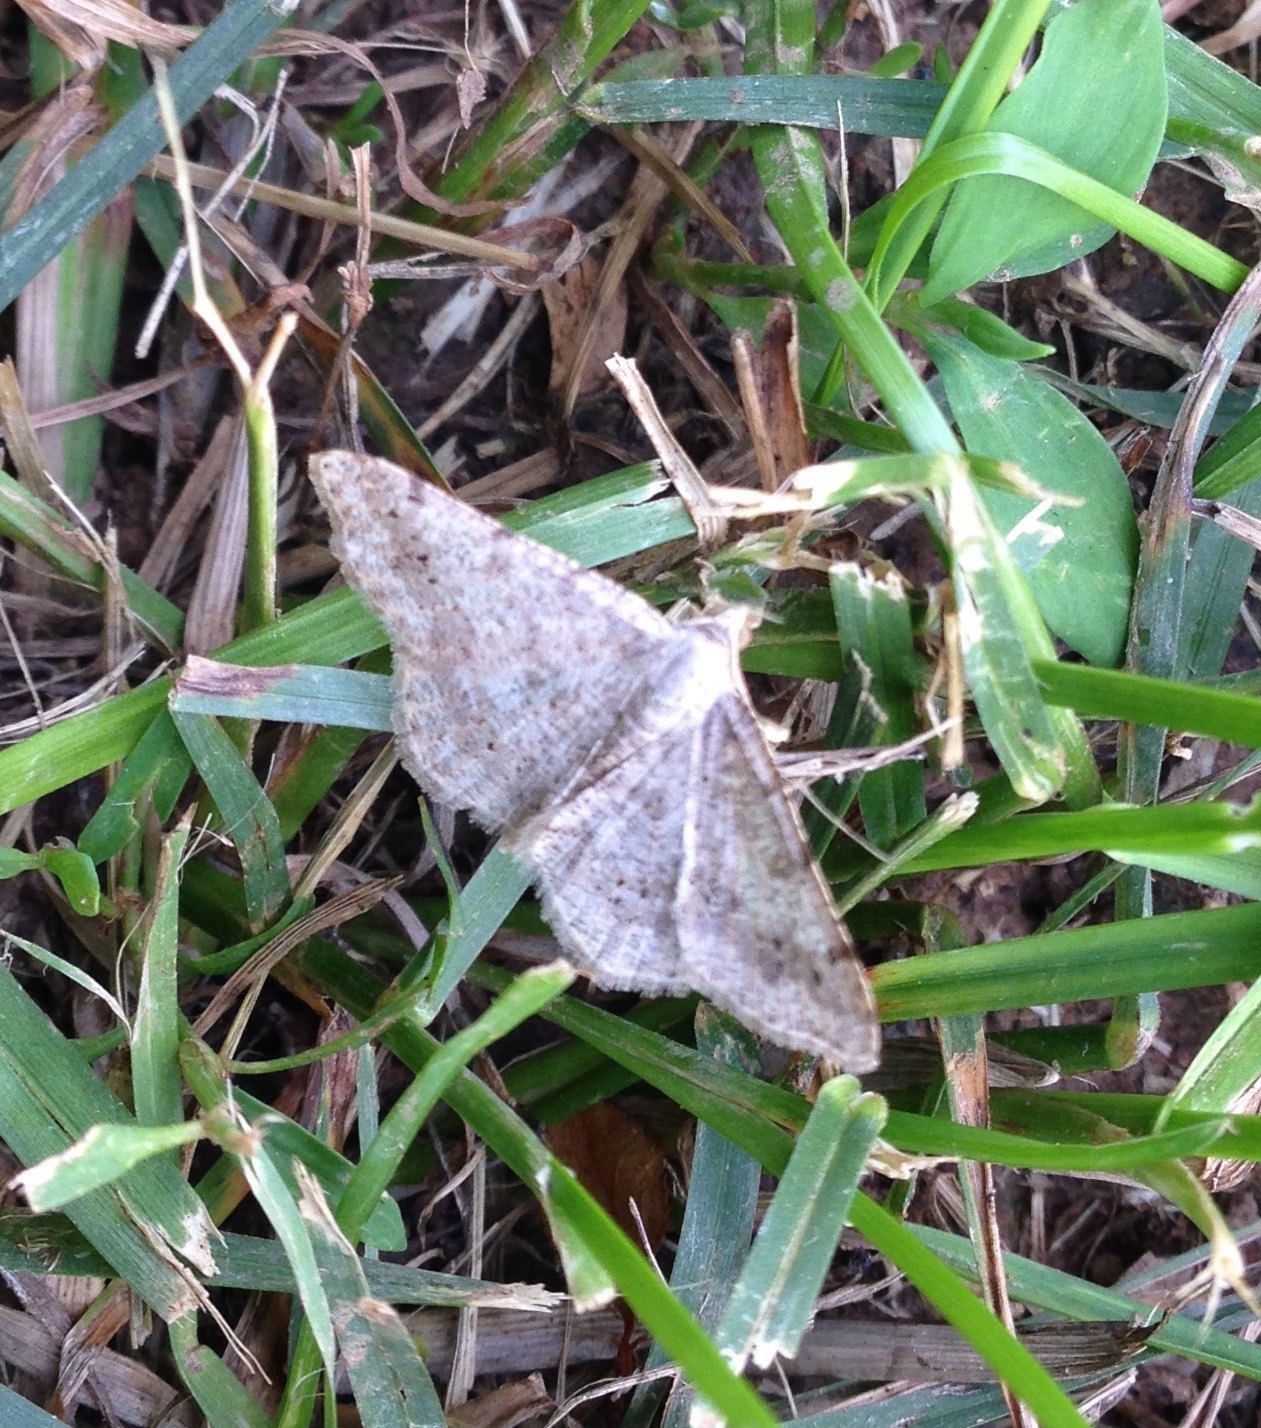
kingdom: Animalia
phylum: Arthropoda
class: Insecta
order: Lepidoptera
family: Geometridae
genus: Digrammia
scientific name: Digrammia ocellinata
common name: Faint-spotted angle
